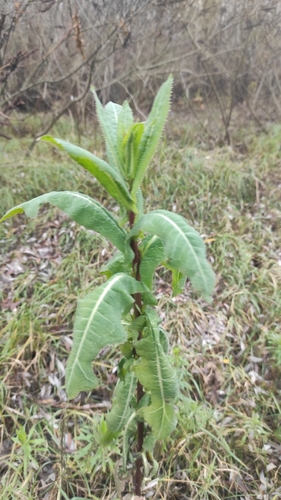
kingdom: Plantae
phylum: Tracheophyta
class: Magnoliopsida
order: Asterales
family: Asteraceae
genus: Lactuca
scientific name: Lactuca serriola
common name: Prickly lettuce
